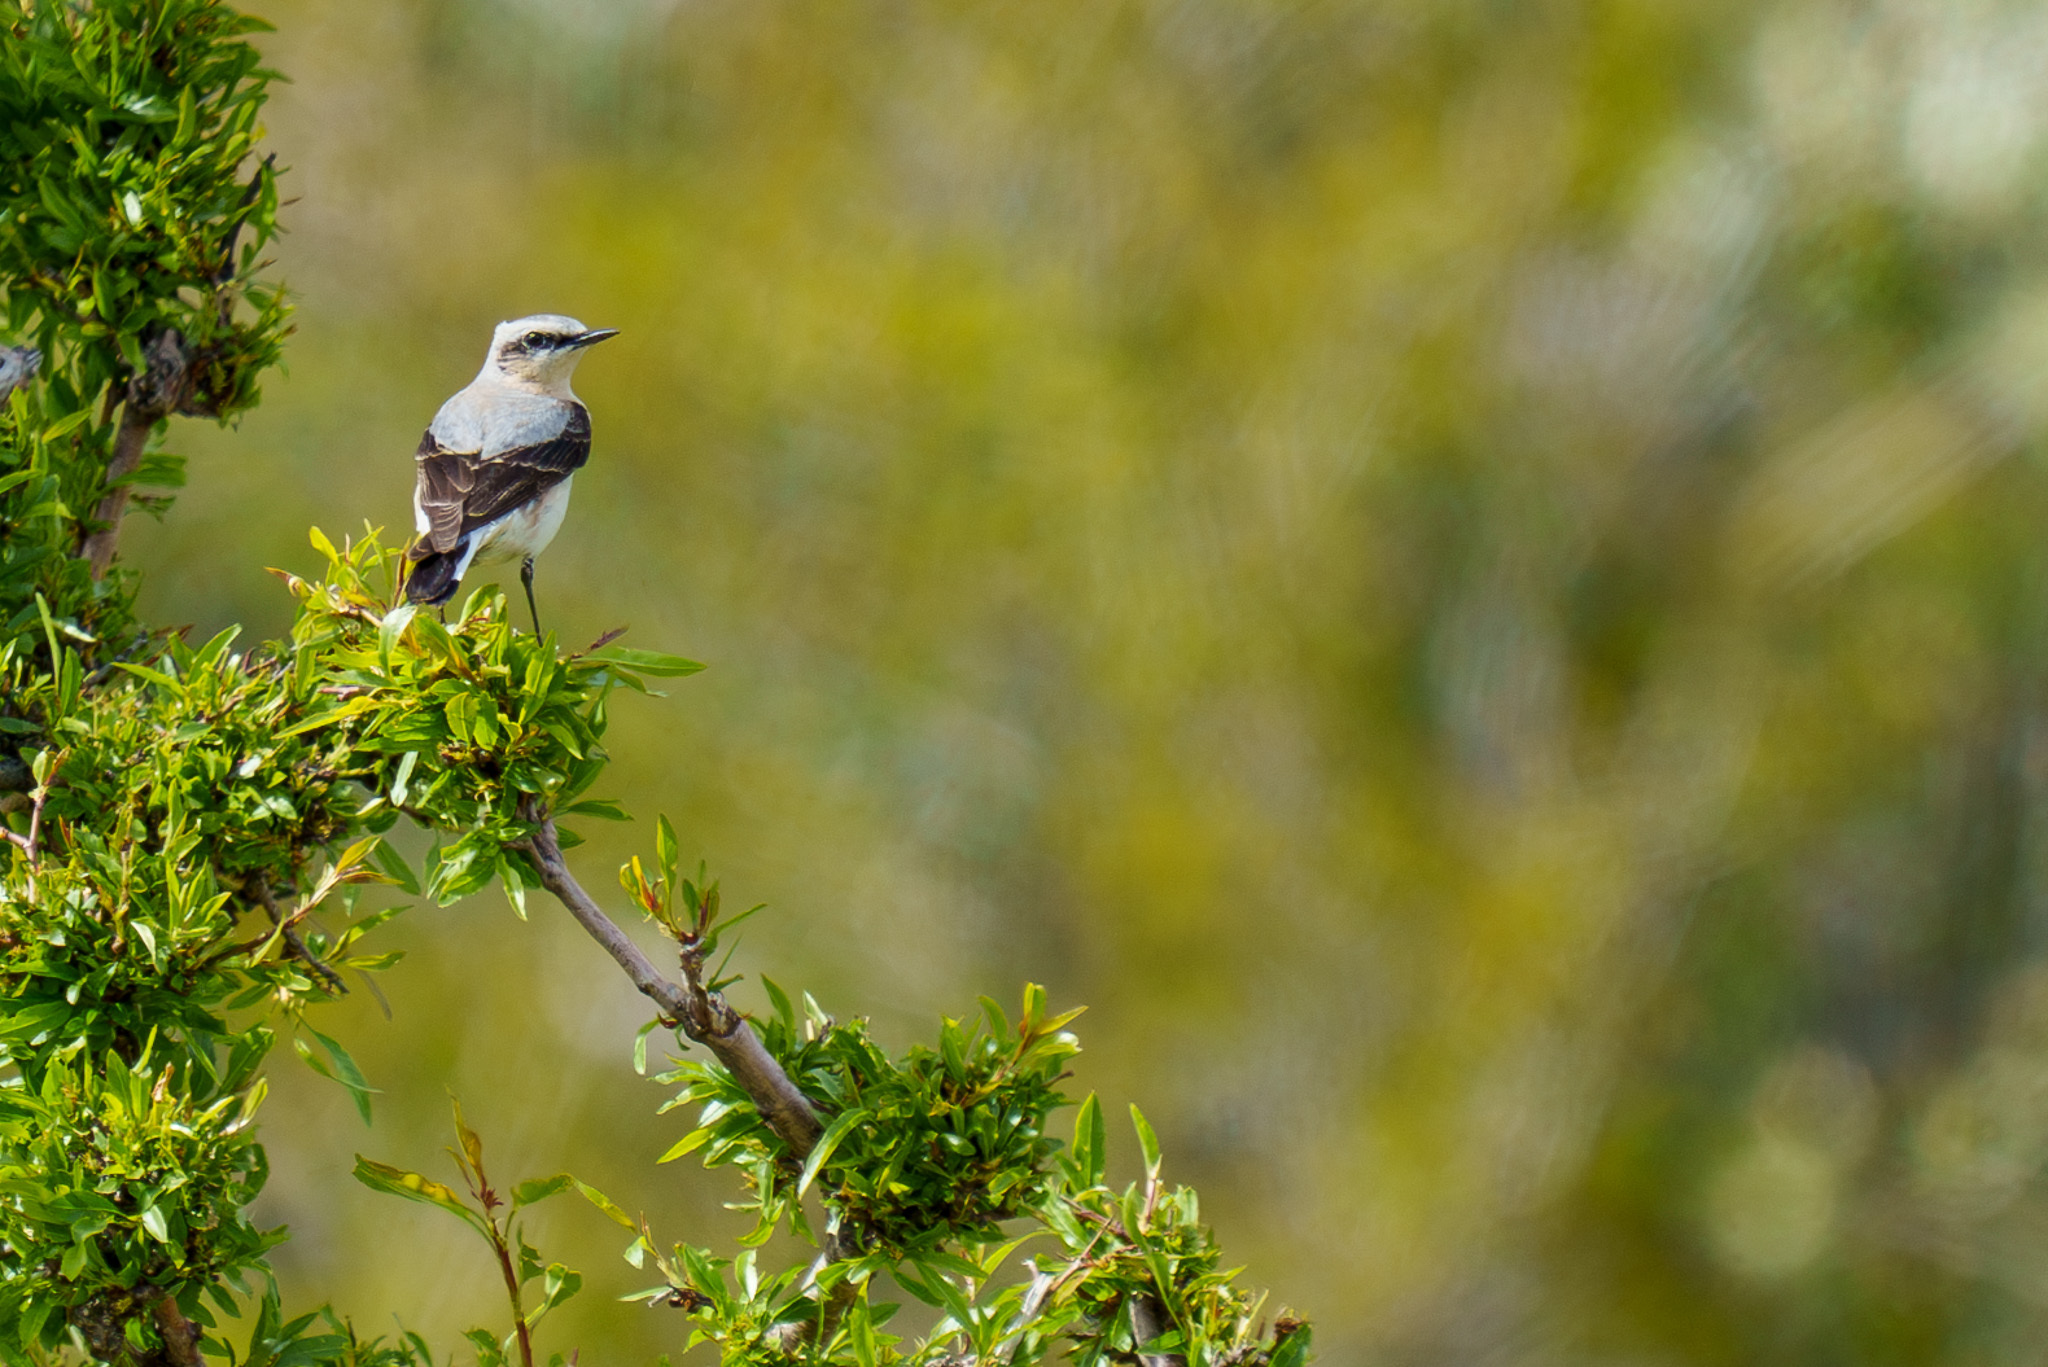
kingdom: Animalia
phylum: Chordata
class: Aves
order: Passeriformes
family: Muscicapidae
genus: Oenanthe
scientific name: Oenanthe oenanthe
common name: Northern wheatear
